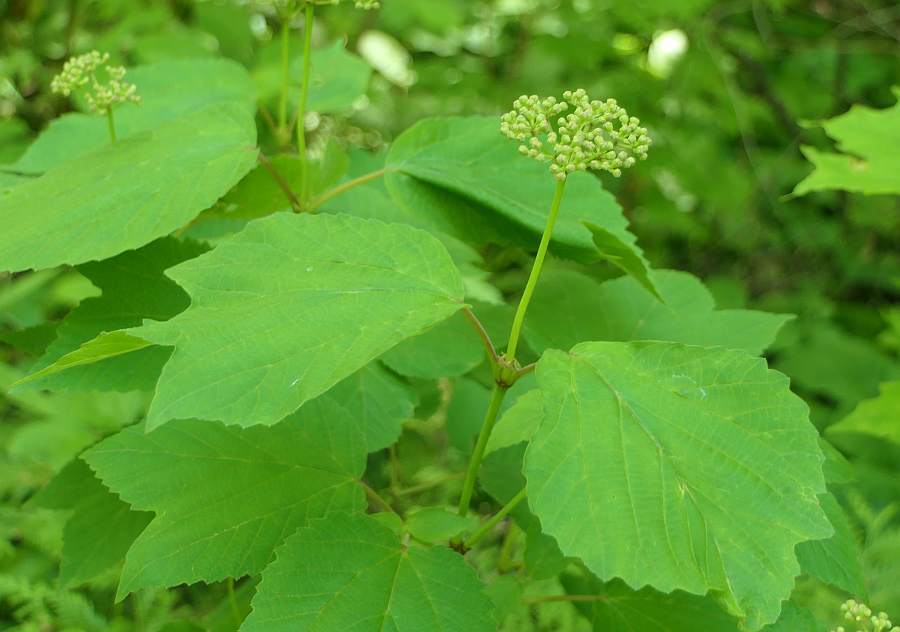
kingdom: Plantae
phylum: Tracheophyta
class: Magnoliopsida
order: Dipsacales
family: Viburnaceae
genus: Viburnum
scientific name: Viburnum acerifolium
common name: Dockmackie
